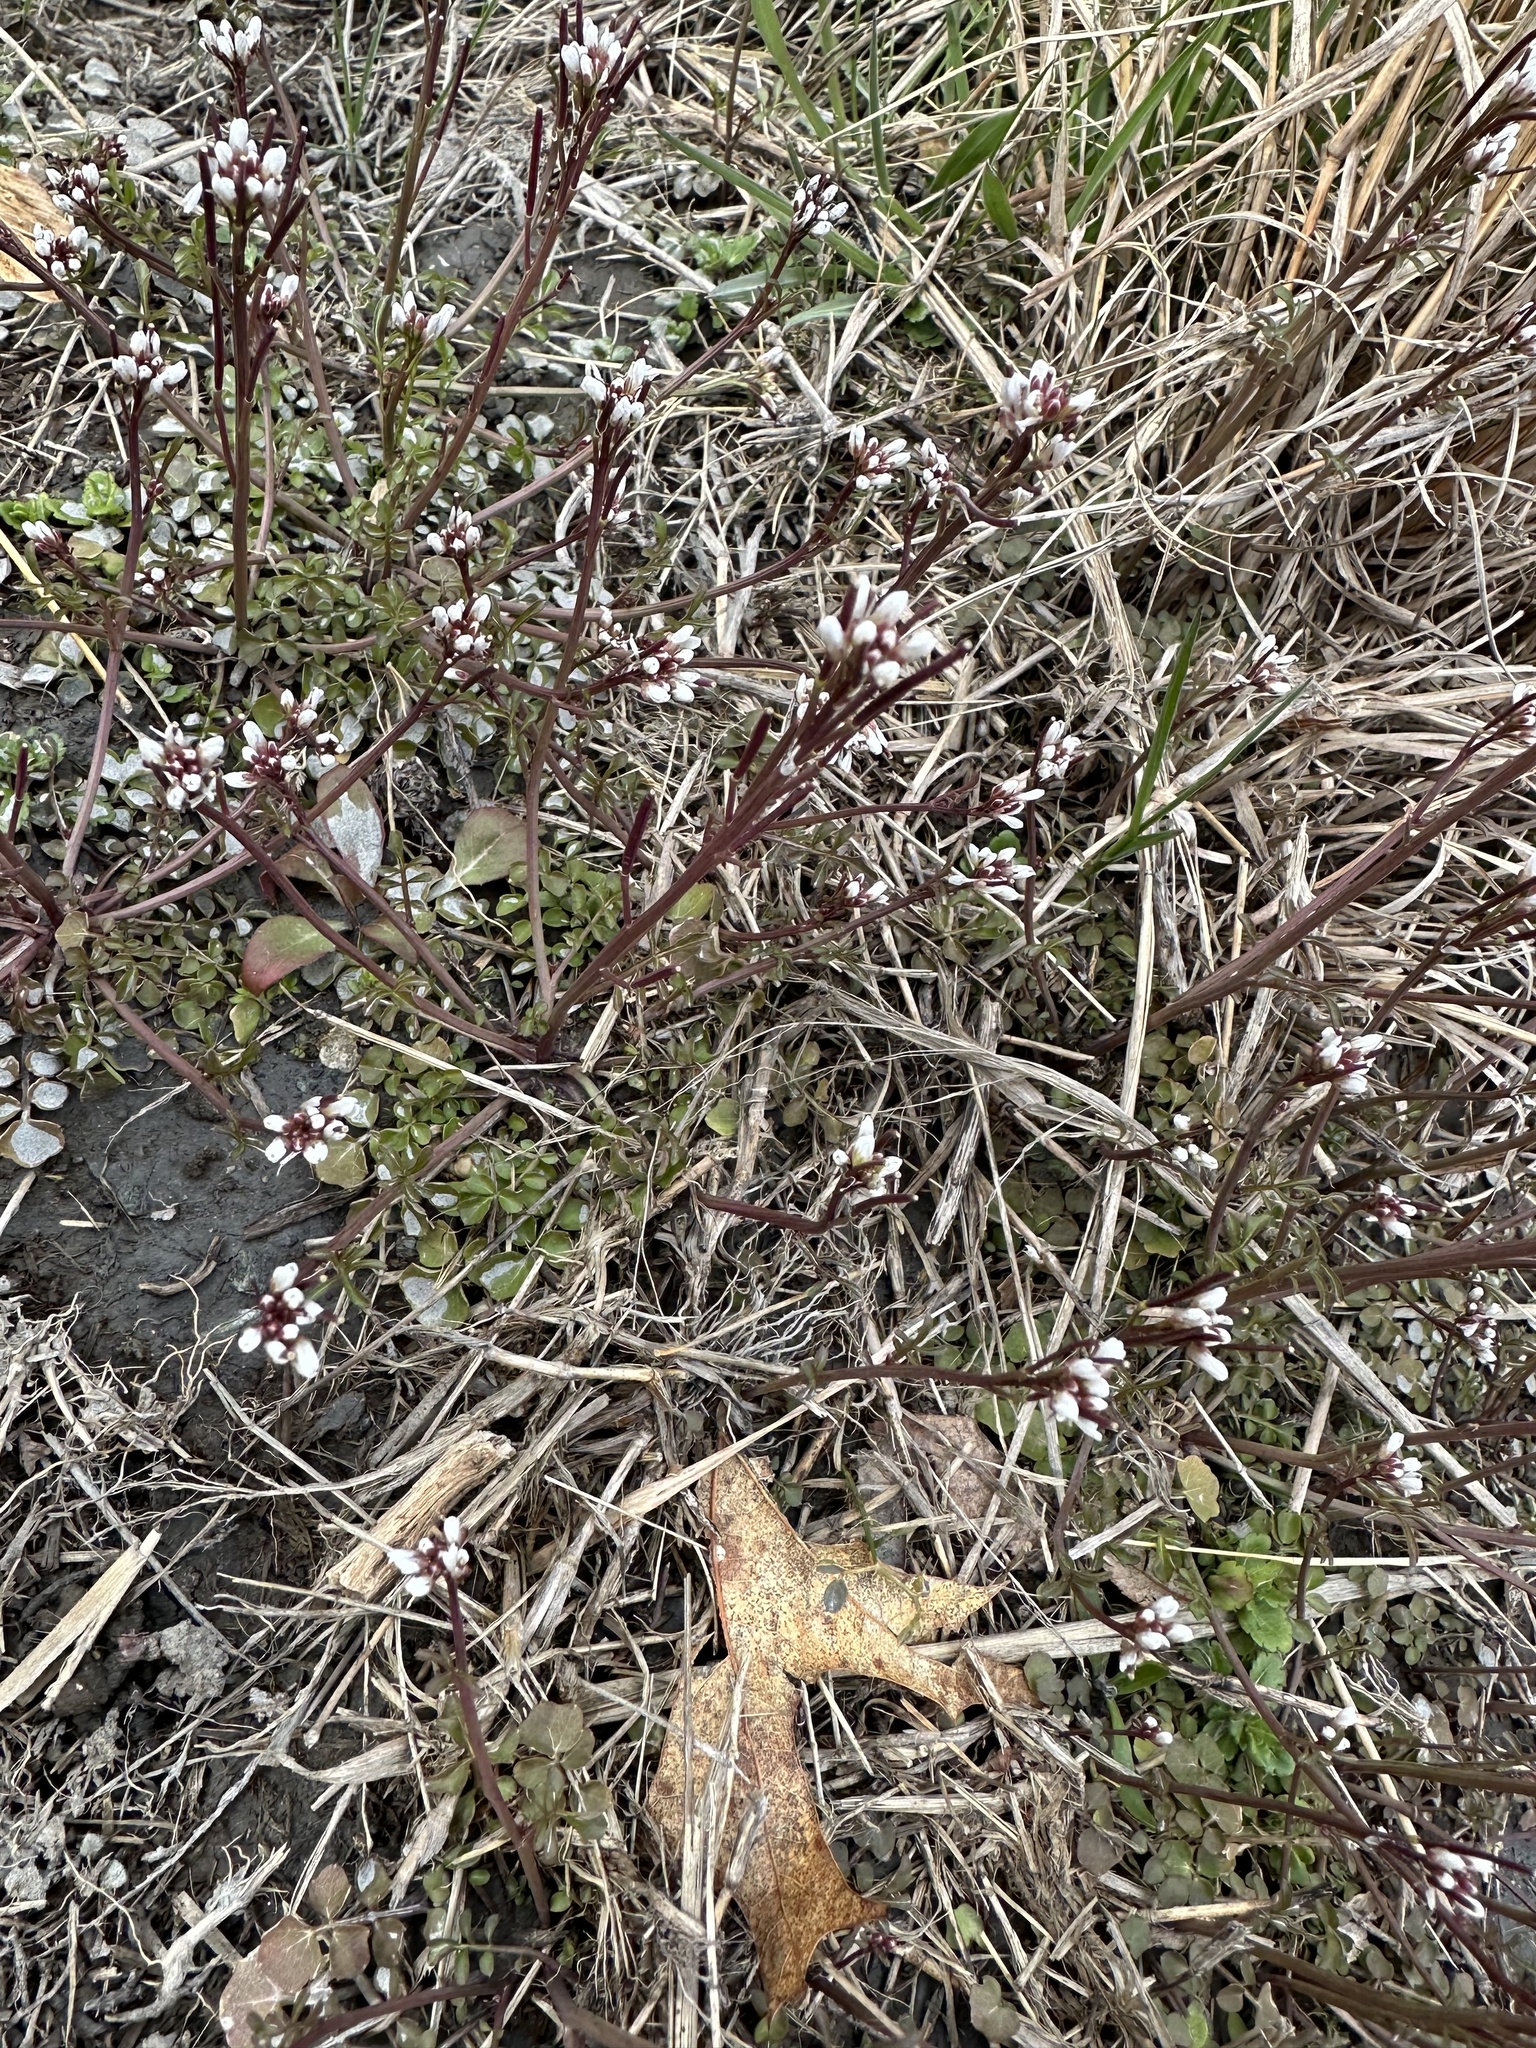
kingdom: Plantae
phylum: Tracheophyta
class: Magnoliopsida
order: Brassicales
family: Brassicaceae
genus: Cardamine
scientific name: Cardamine hirsuta
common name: Hairy bittercress
